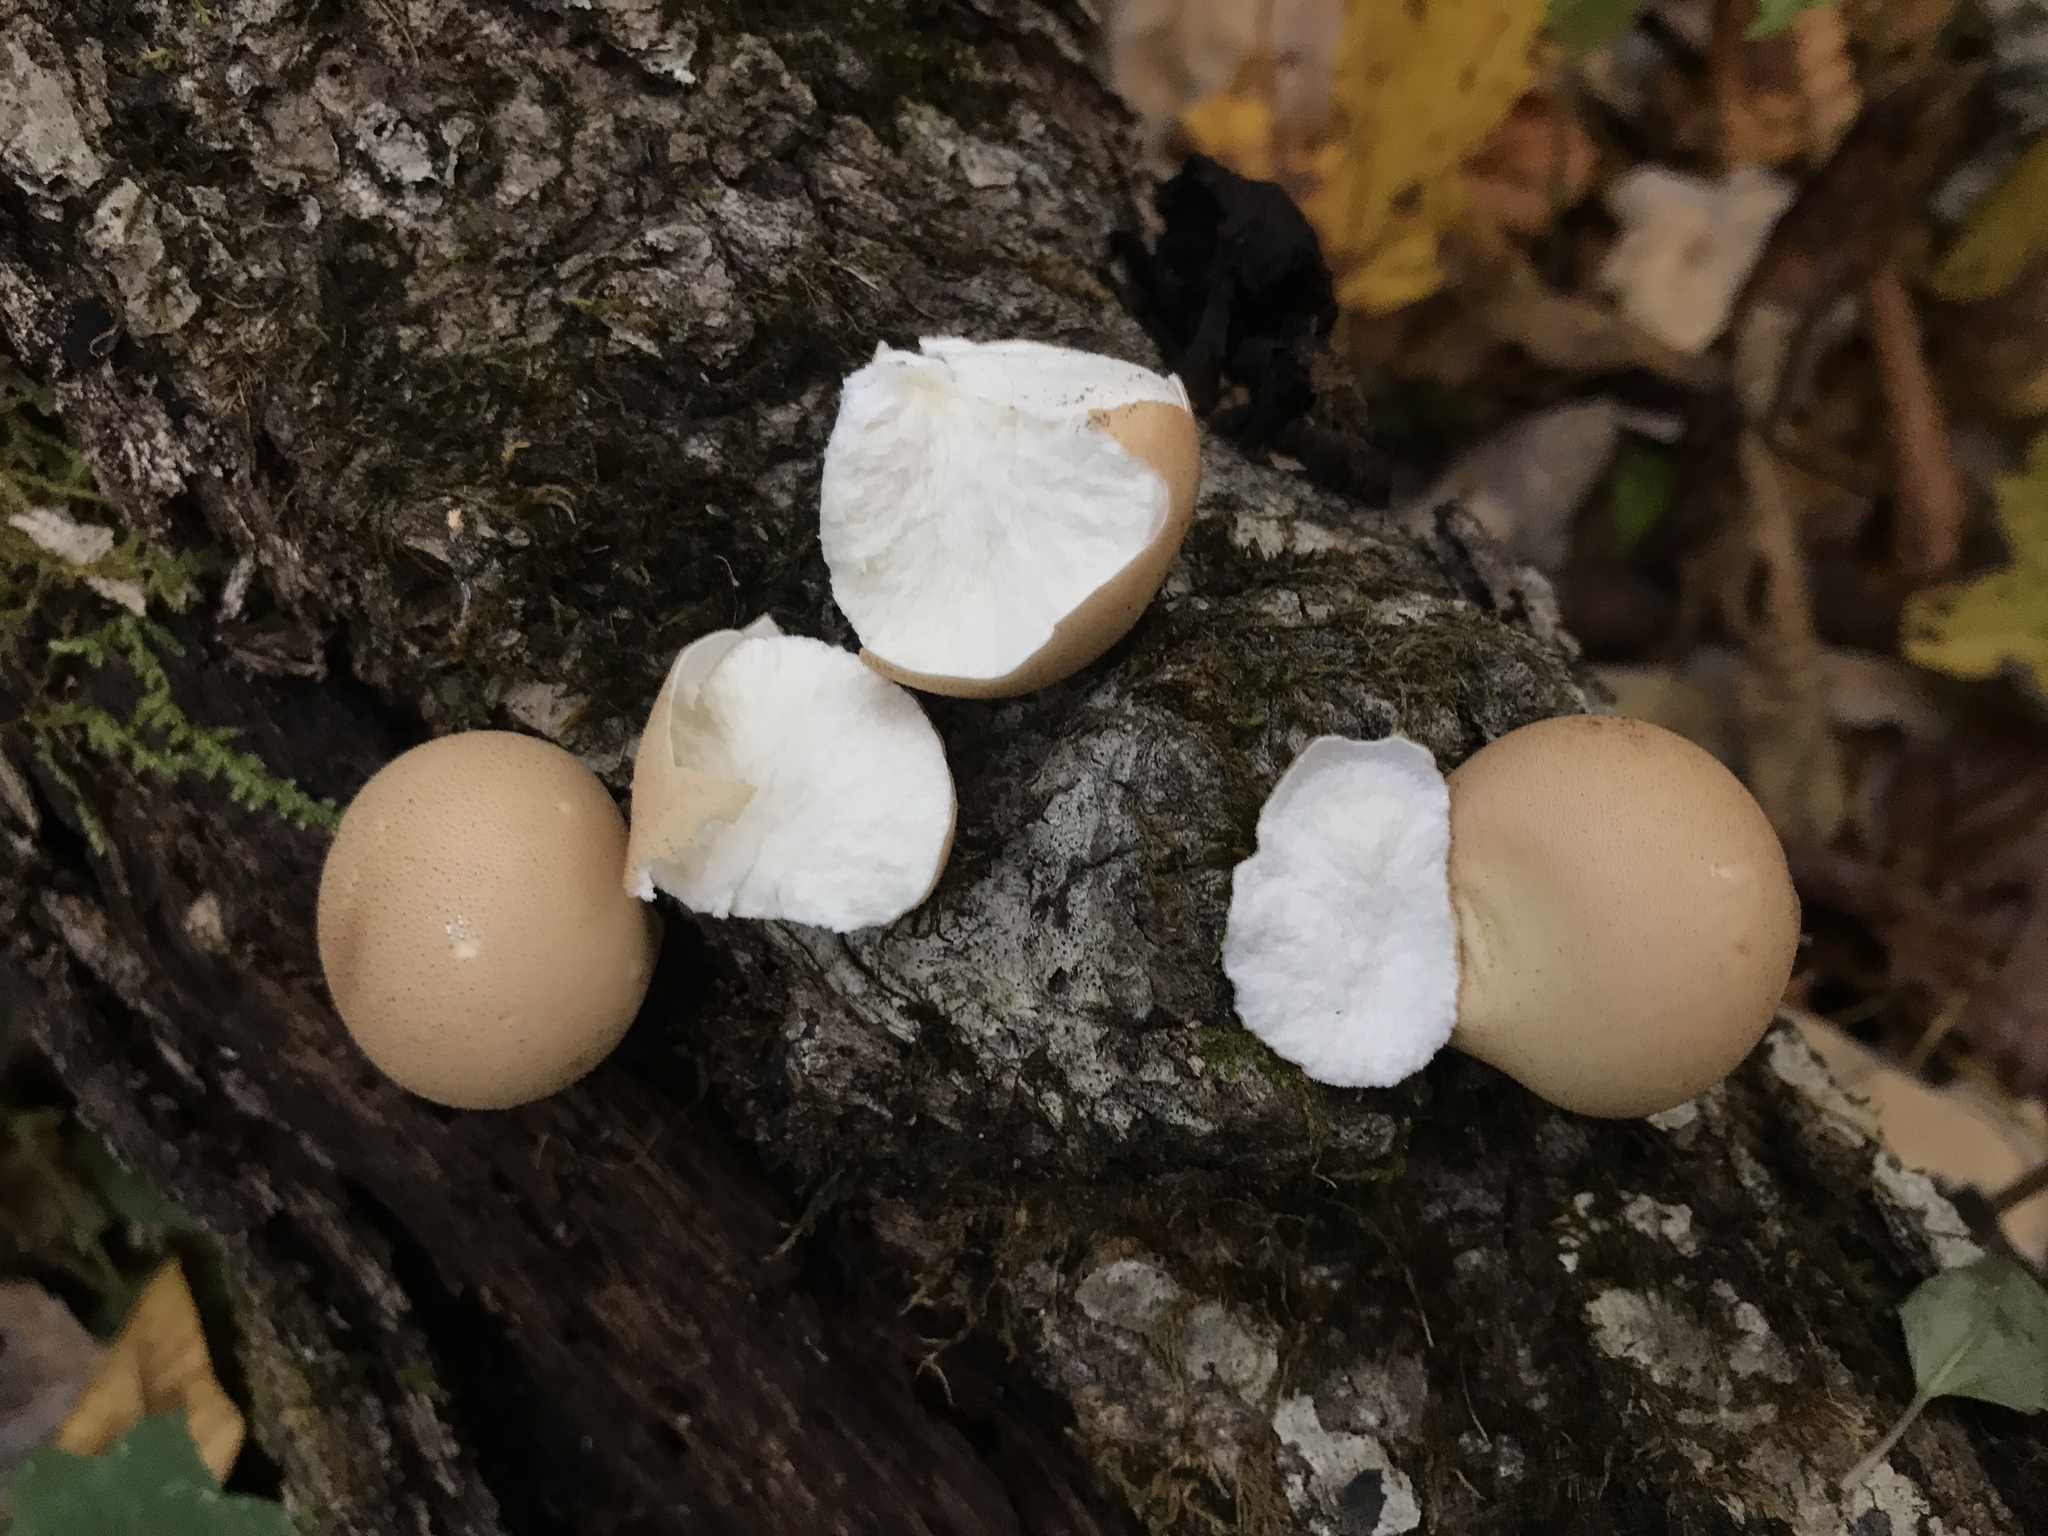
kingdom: Fungi
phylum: Basidiomycota
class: Agaricomycetes
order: Agaricales
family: Lycoperdaceae
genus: Apioperdon
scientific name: Apioperdon pyriforme
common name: Pear-shaped puffball
